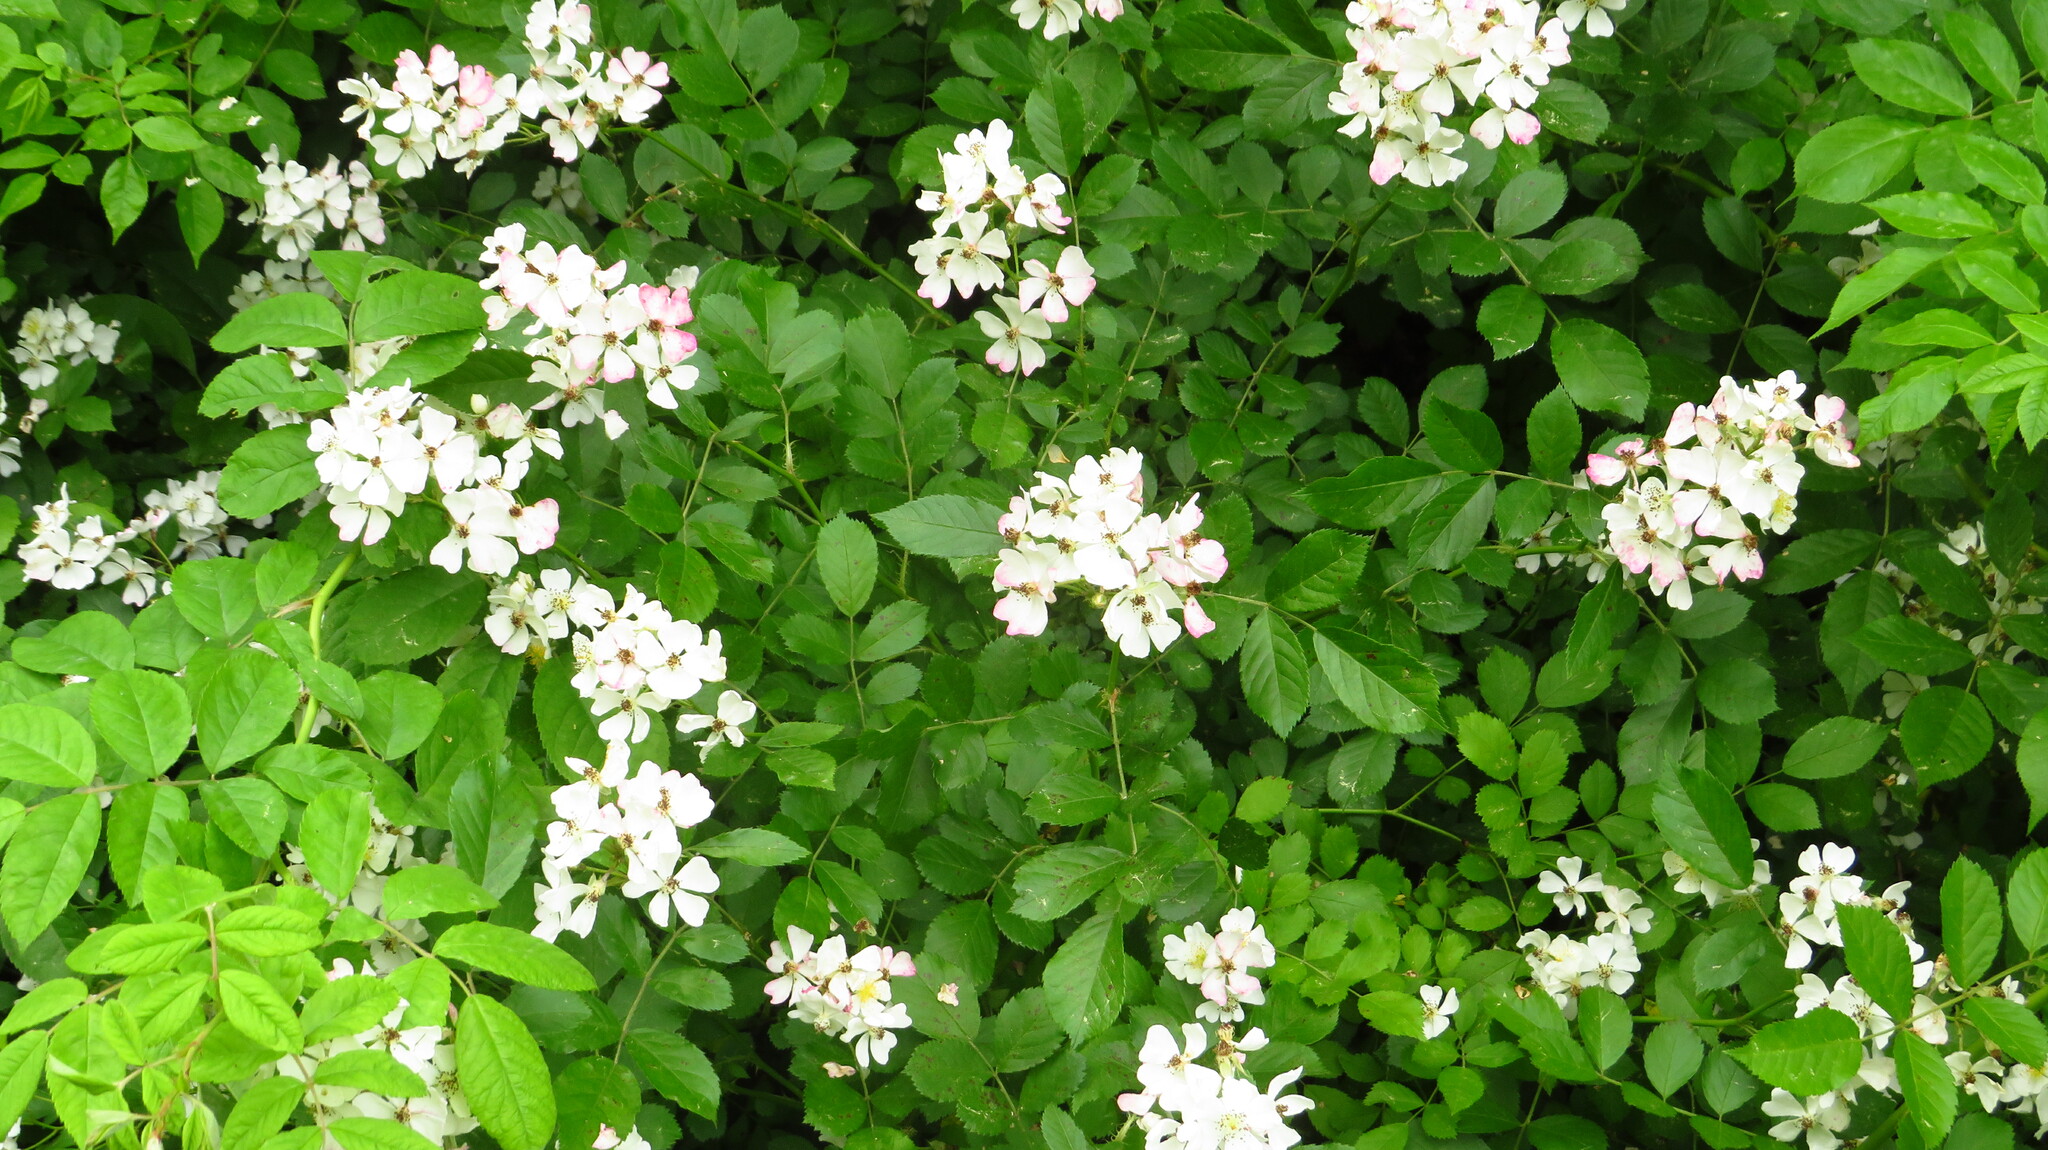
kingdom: Plantae
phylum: Tracheophyta
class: Magnoliopsida
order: Rosales
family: Rosaceae
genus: Rosa
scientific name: Rosa multiflora
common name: Multiflora rose
